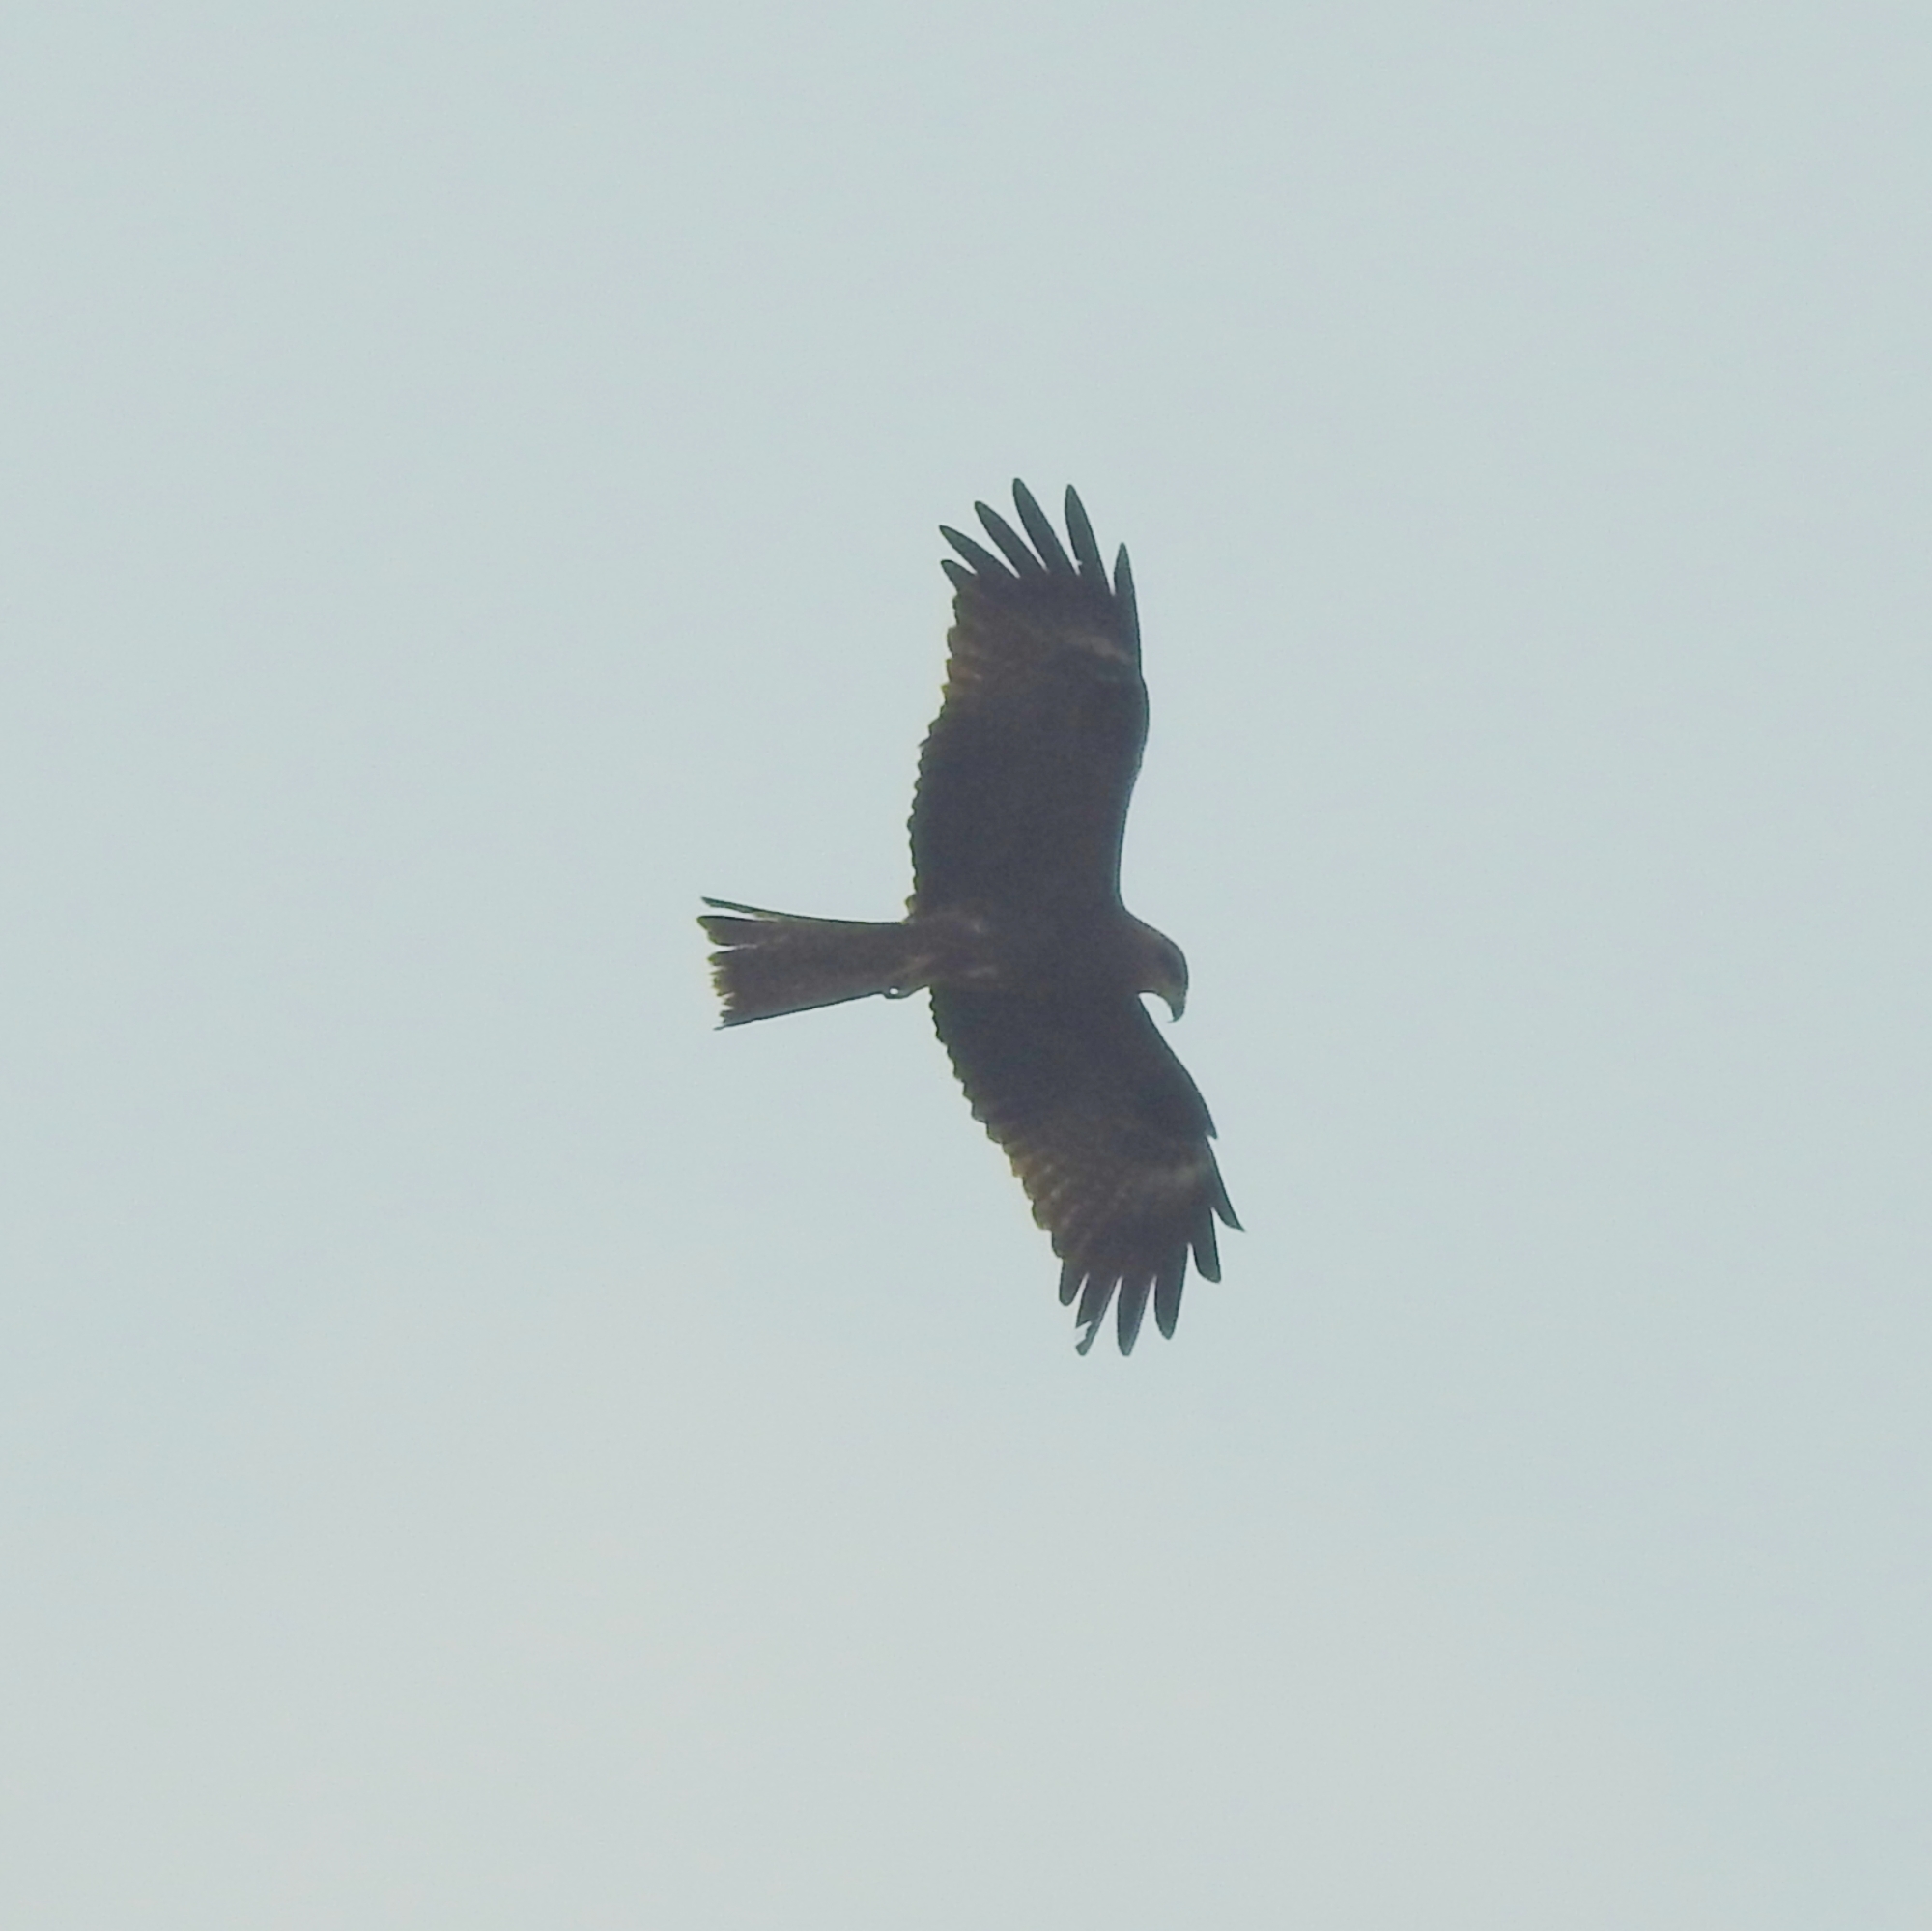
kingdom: Animalia
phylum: Chordata
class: Aves
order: Accipitriformes
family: Accipitridae
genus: Milvus
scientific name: Milvus migrans
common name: Black kite
